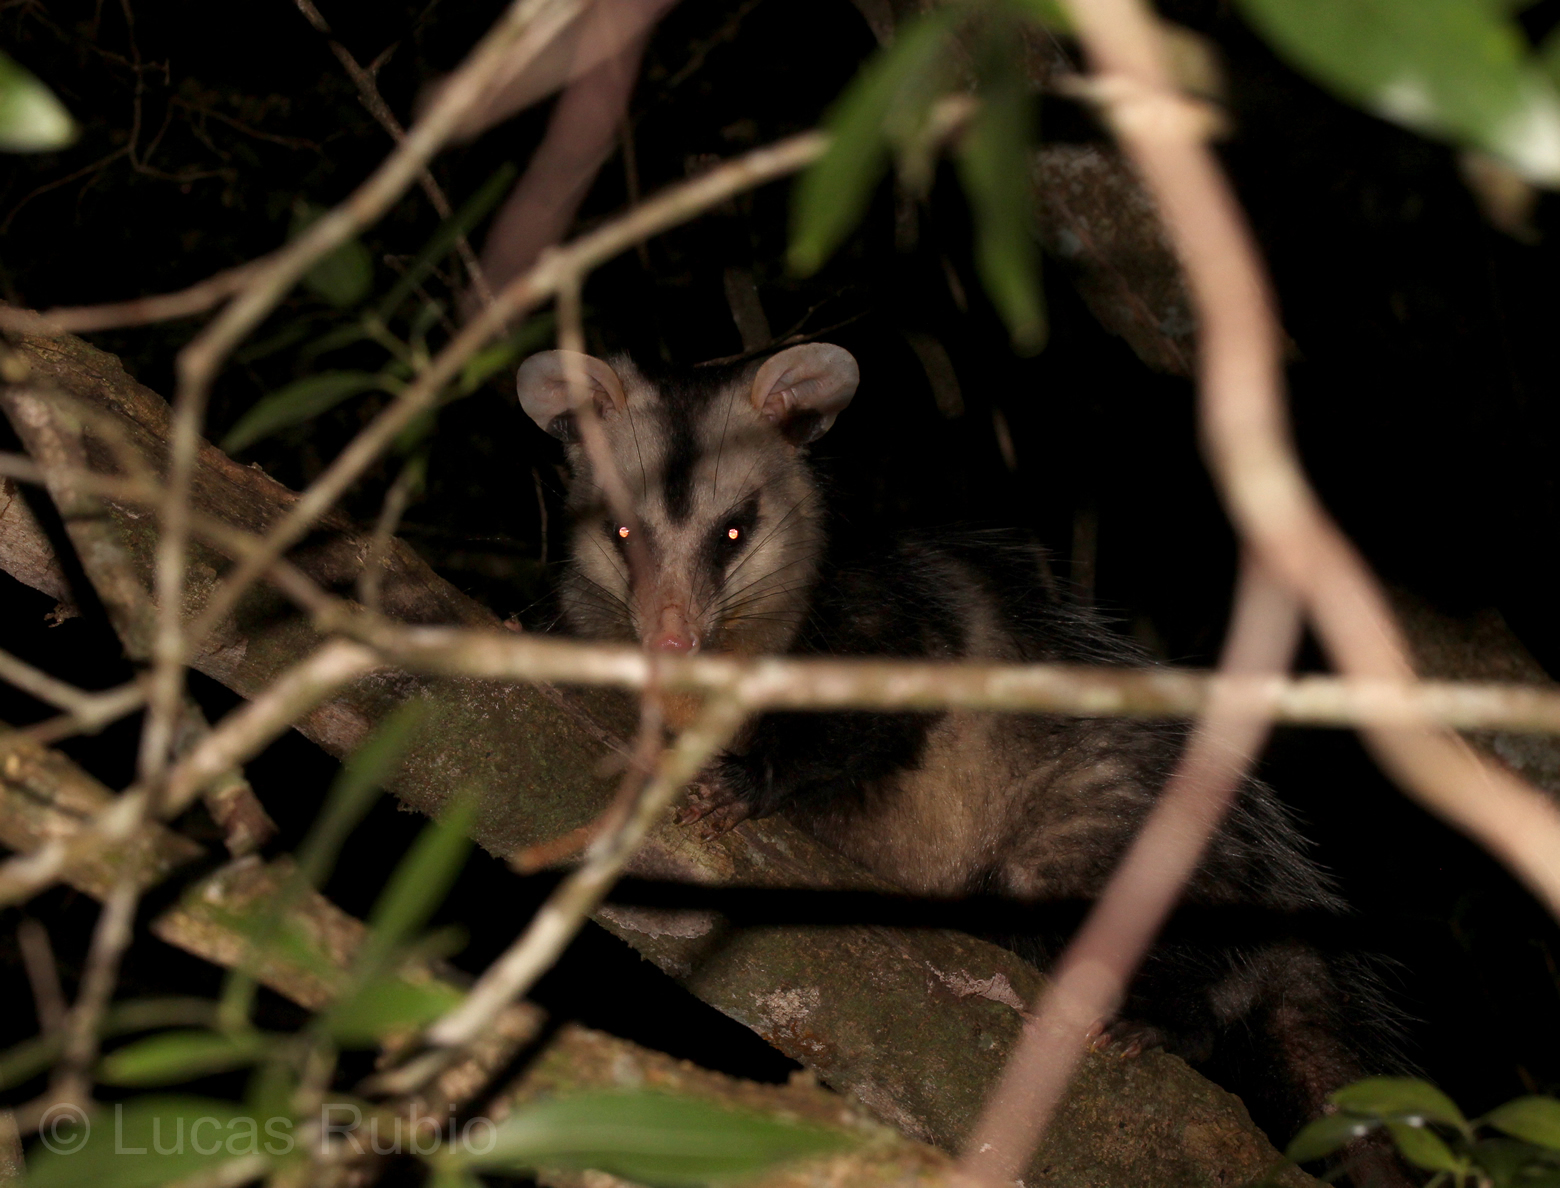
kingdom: Animalia
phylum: Chordata
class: Mammalia
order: Didelphimorphia
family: Didelphidae
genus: Didelphis
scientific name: Didelphis albiventris
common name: White-eared opossum
